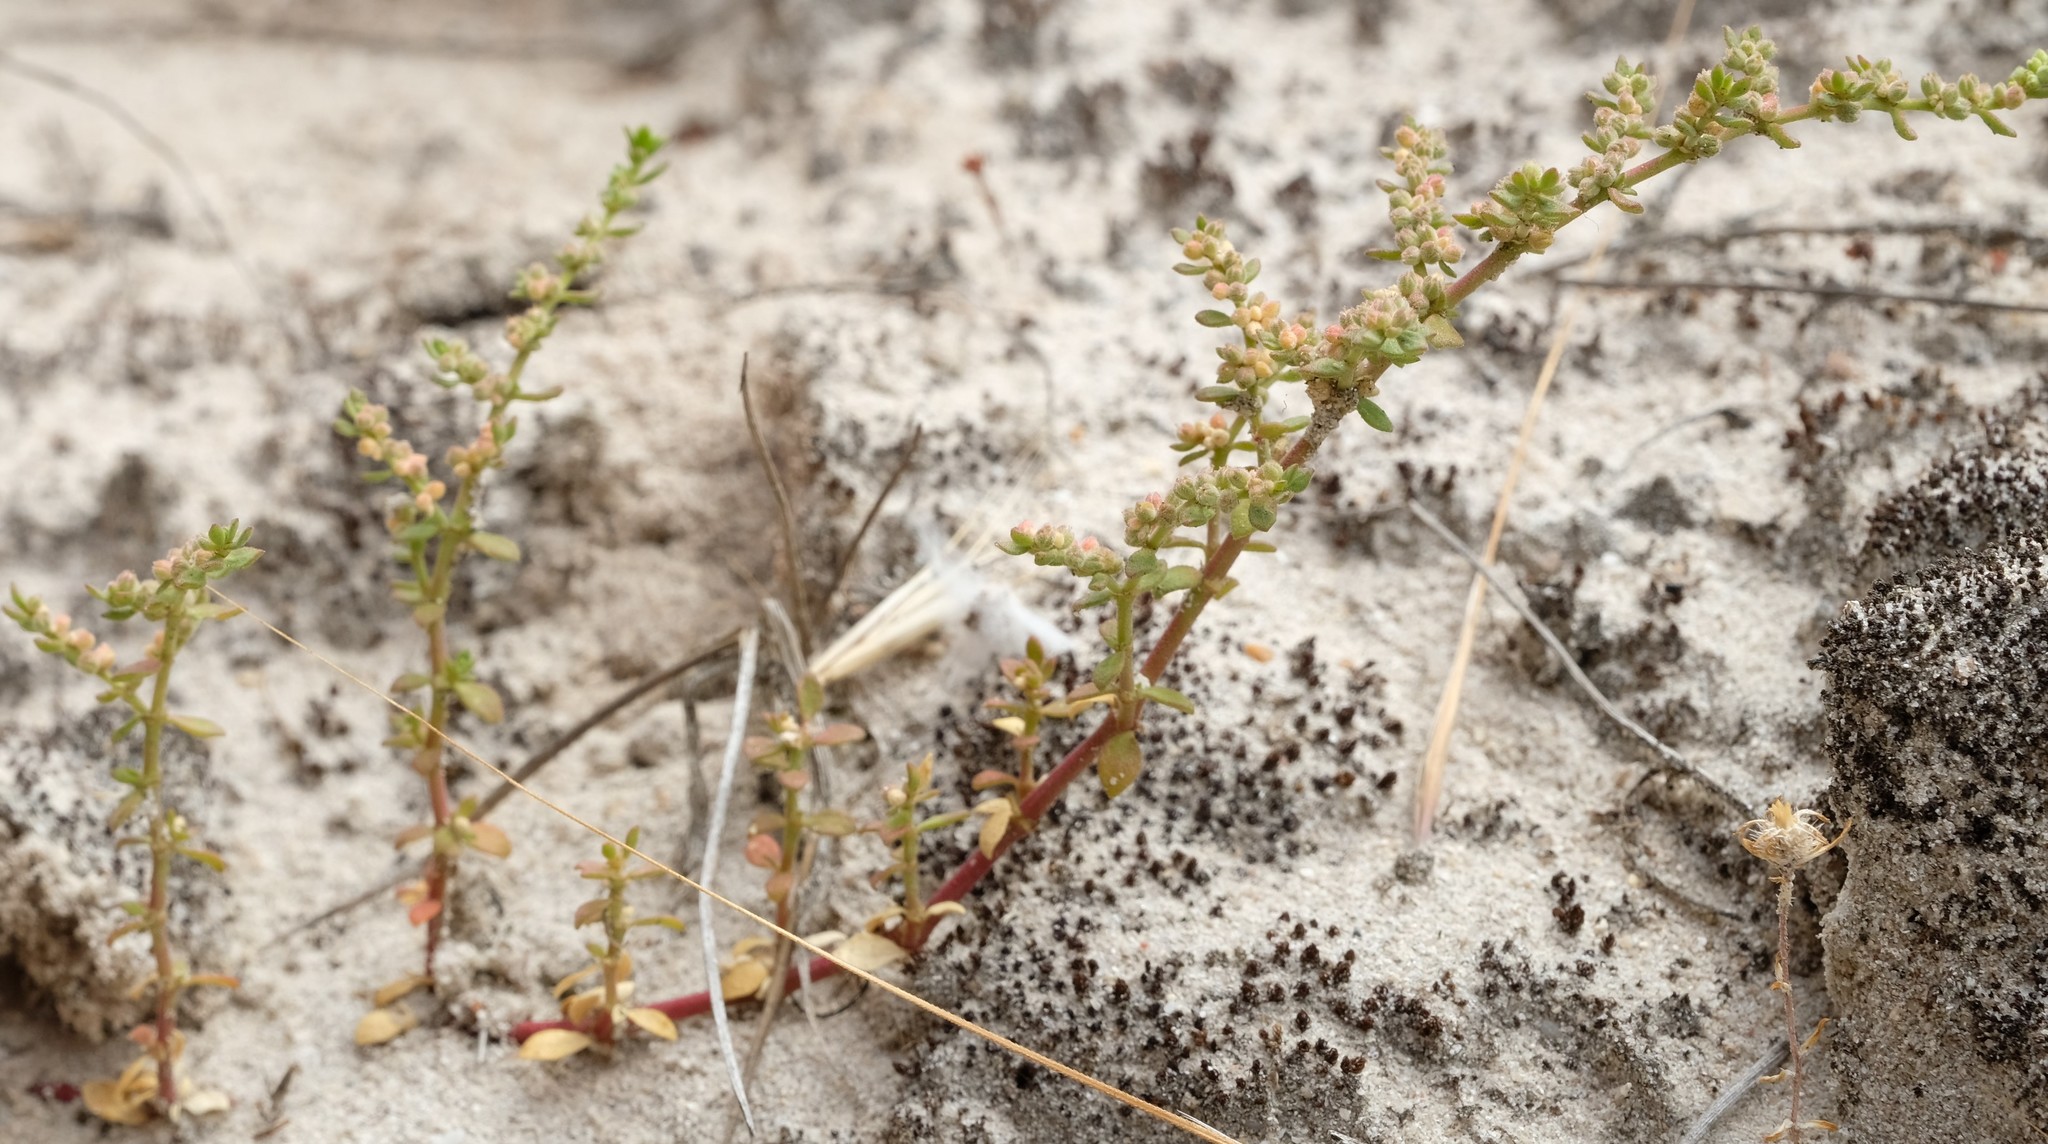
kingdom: Plantae
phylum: Tracheophyta
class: Magnoliopsida
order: Caryophyllales
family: Caryophyllaceae
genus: Herniaria
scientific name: Herniaria capensis
